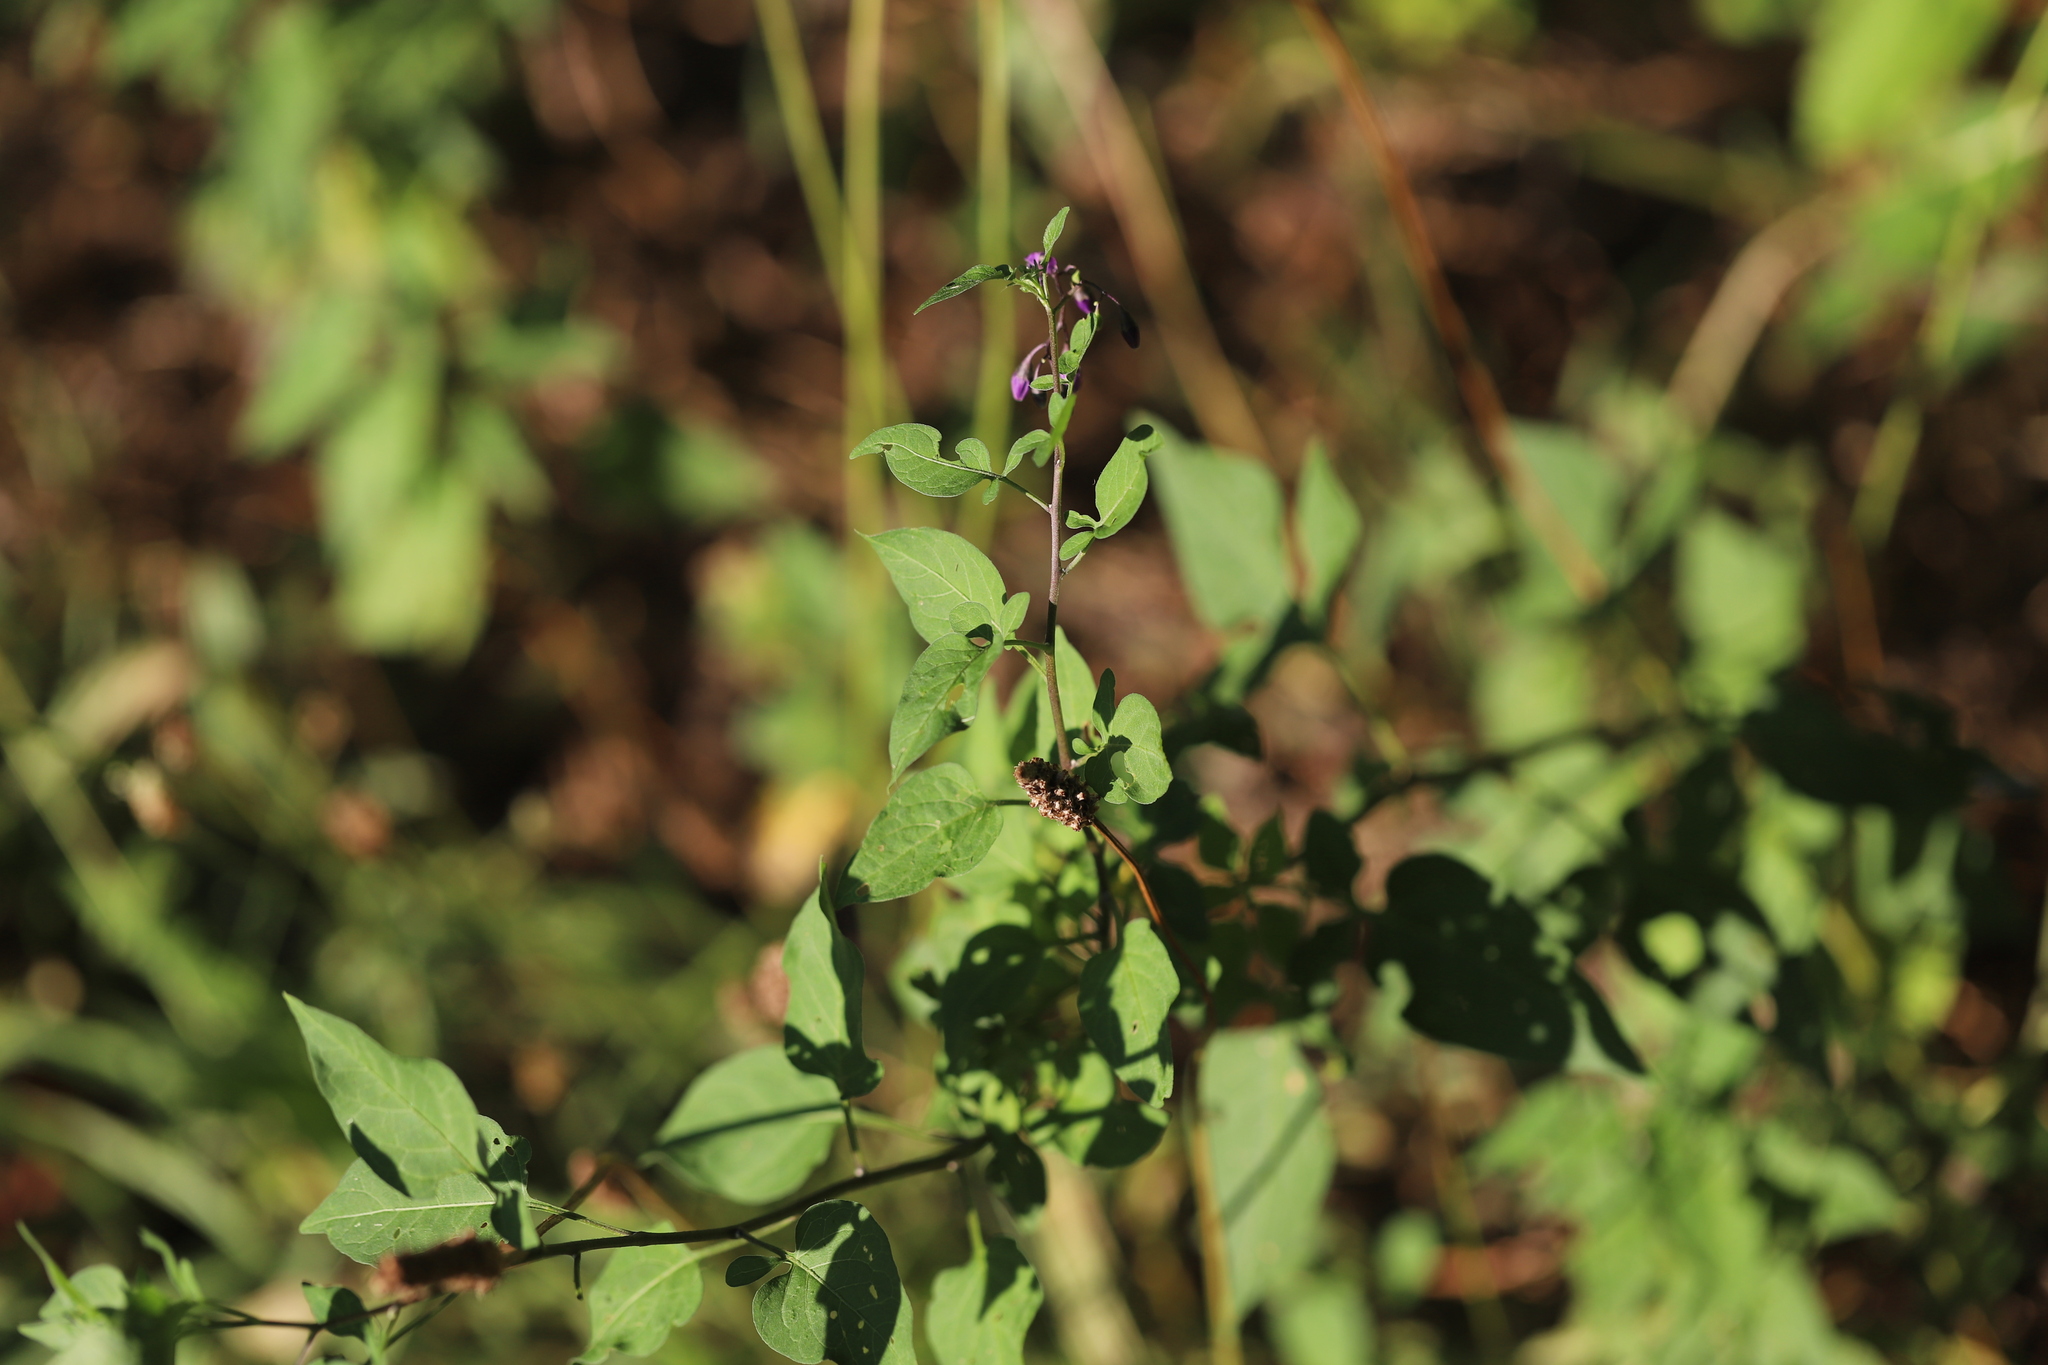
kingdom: Plantae
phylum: Tracheophyta
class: Magnoliopsida
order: Solanales
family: Solanaceae
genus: Solanum
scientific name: Solanum dulcamara
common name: Climbing nightshade
